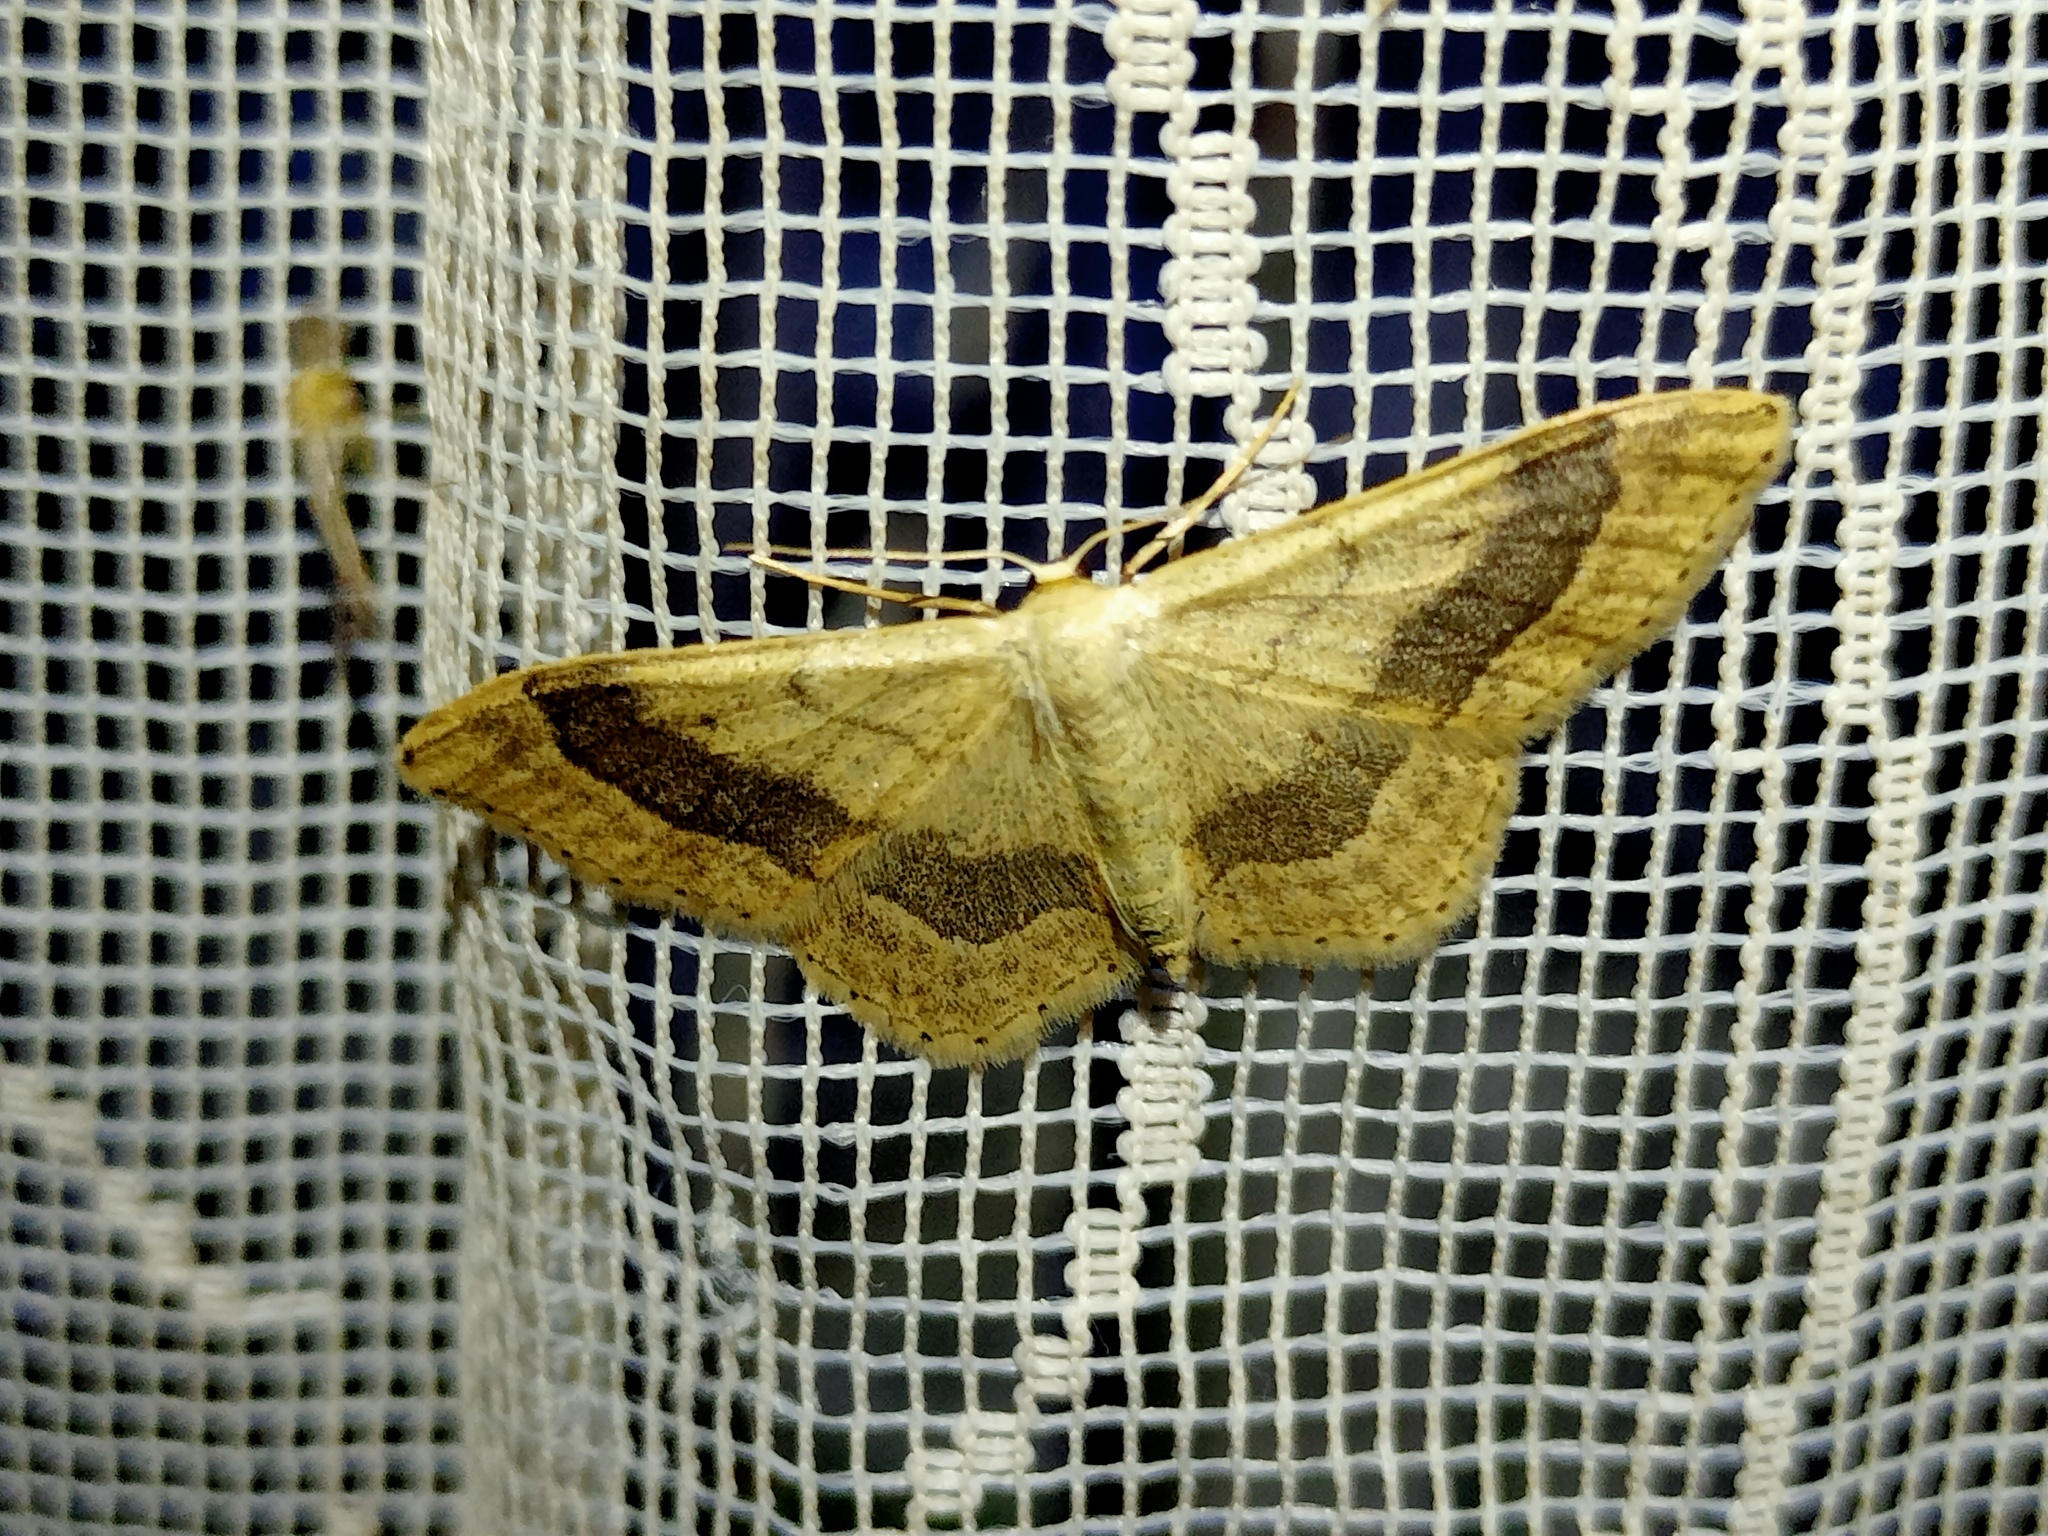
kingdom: Animalia
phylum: Arthropoda
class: Insecta
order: Lepidoptera
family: Geometridae
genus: Idaea
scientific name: Idaea aversata
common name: Riband wave
